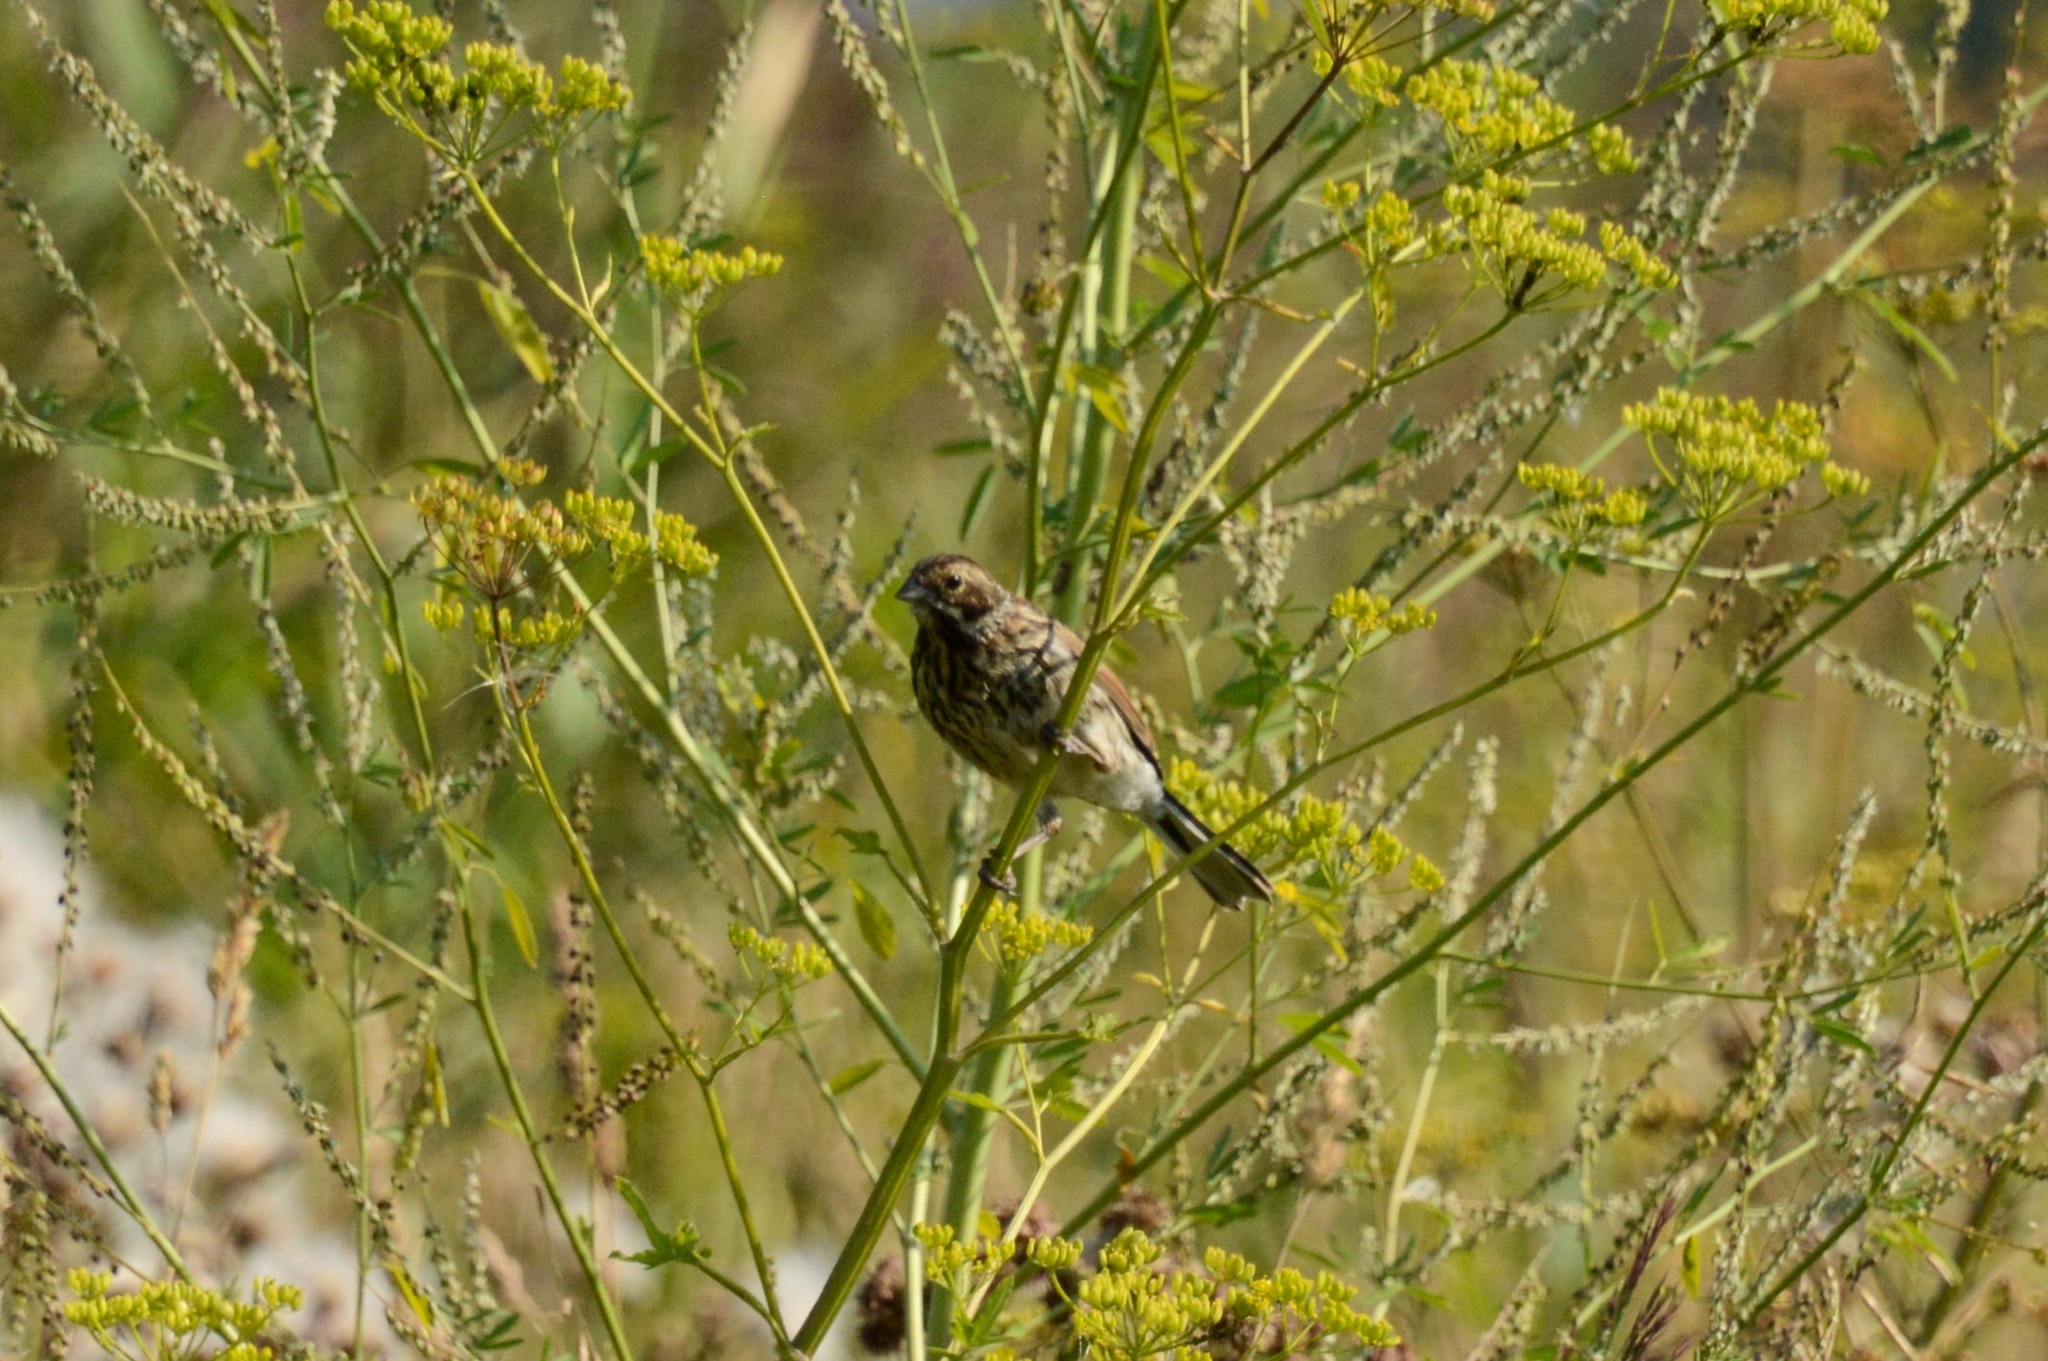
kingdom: Animalia
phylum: Chordata
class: Aves
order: Passeriformes
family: Emberizidae
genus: Emberiza
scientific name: Emberiza schoeniclus
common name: Reed bunting
